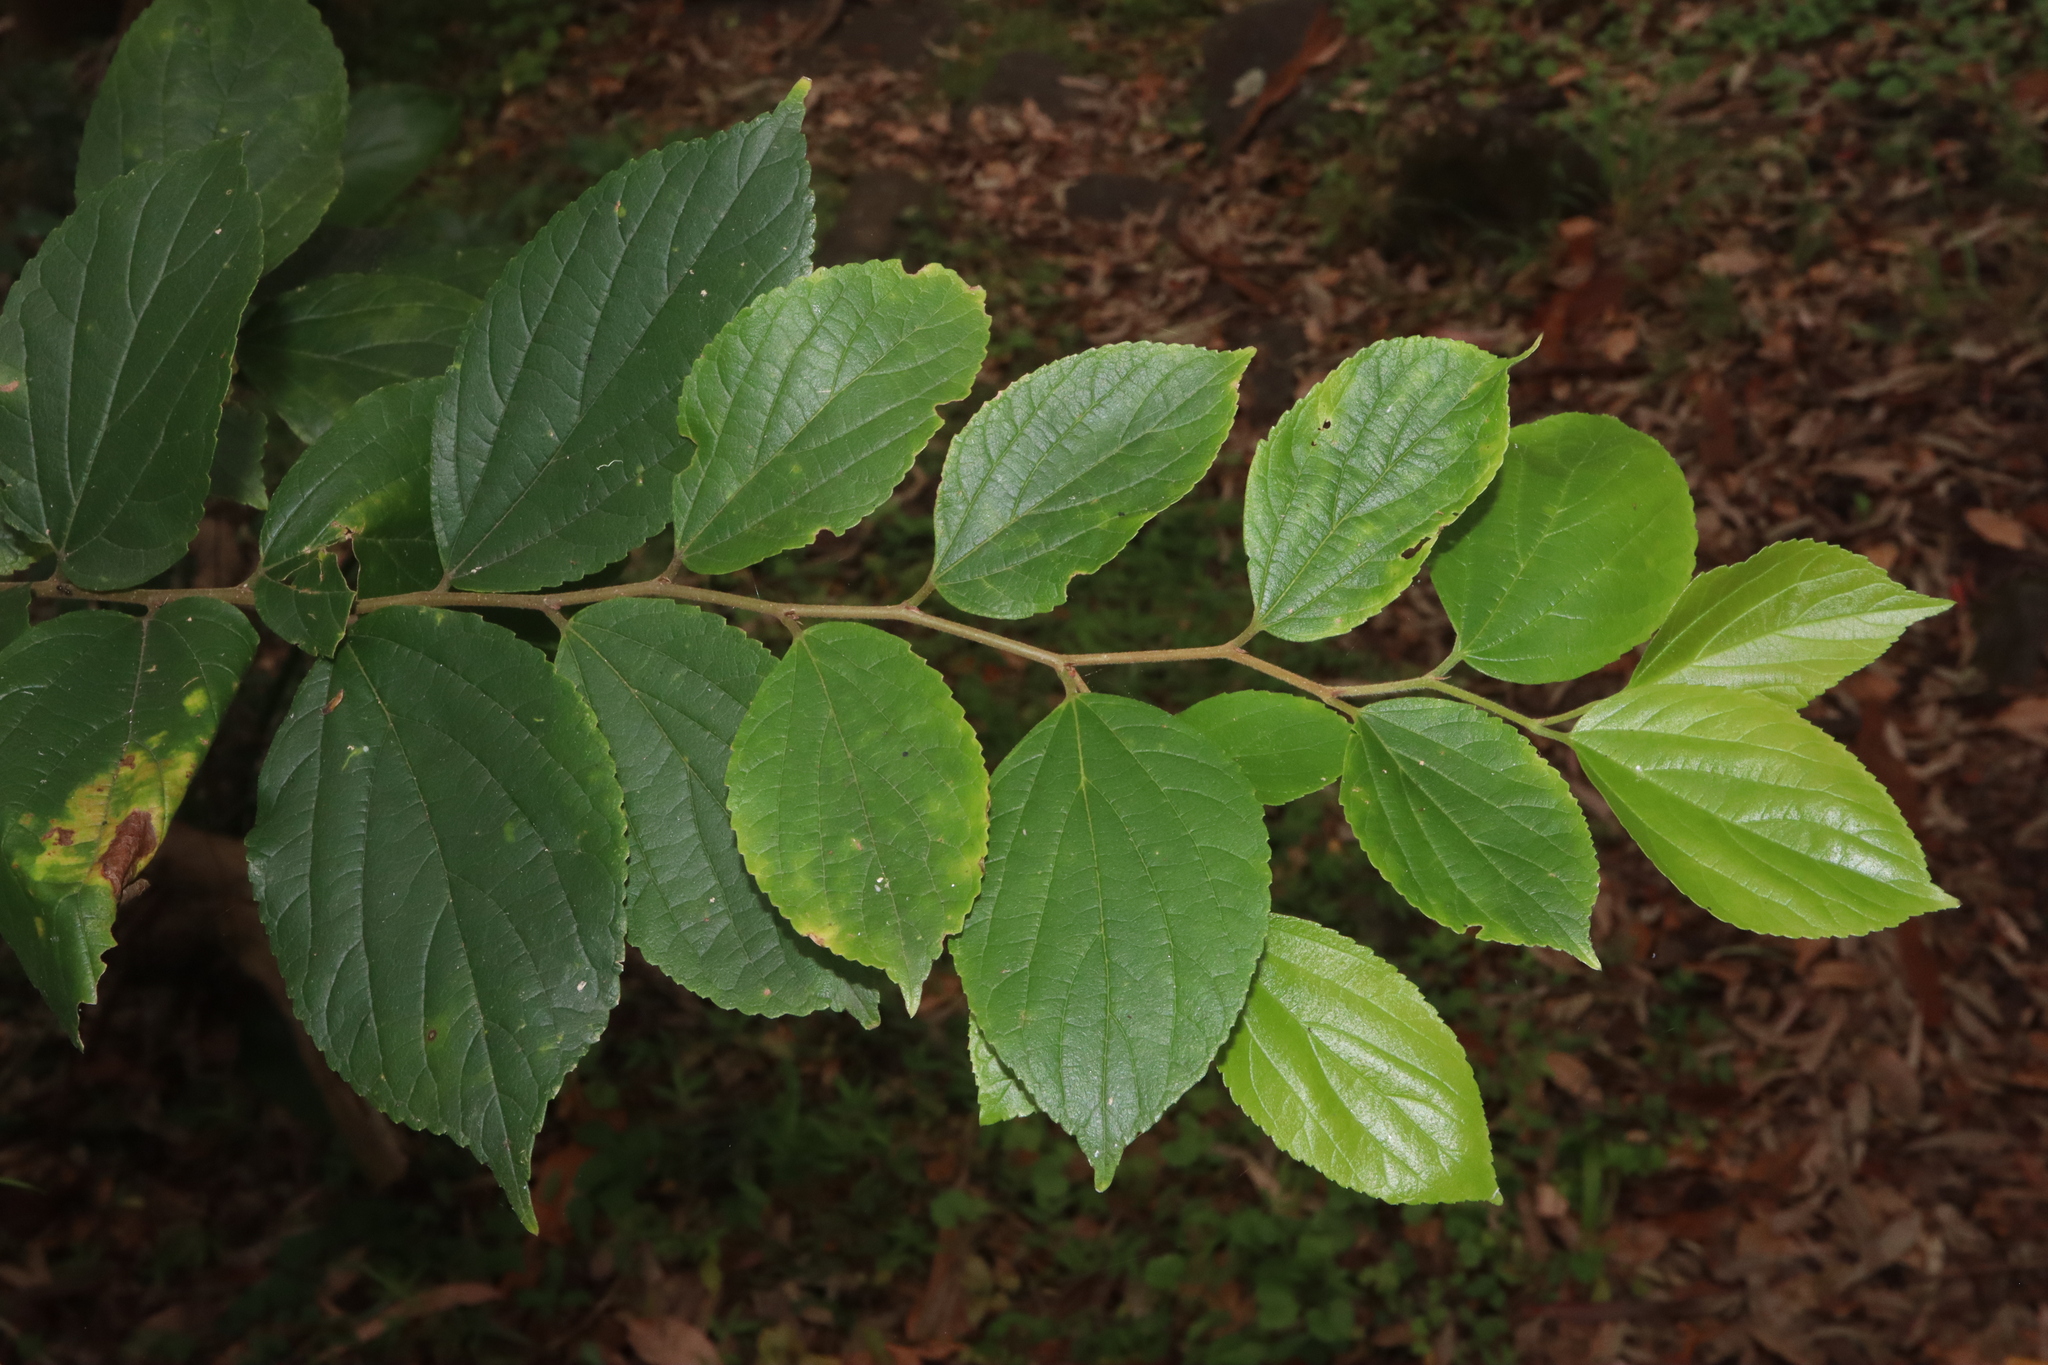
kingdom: Plantae
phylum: Tracheophyta
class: Magnoliopsida
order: Rosales
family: Cannabaceae
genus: Celtis
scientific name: Celtis sinensis
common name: Chinese hackberry
